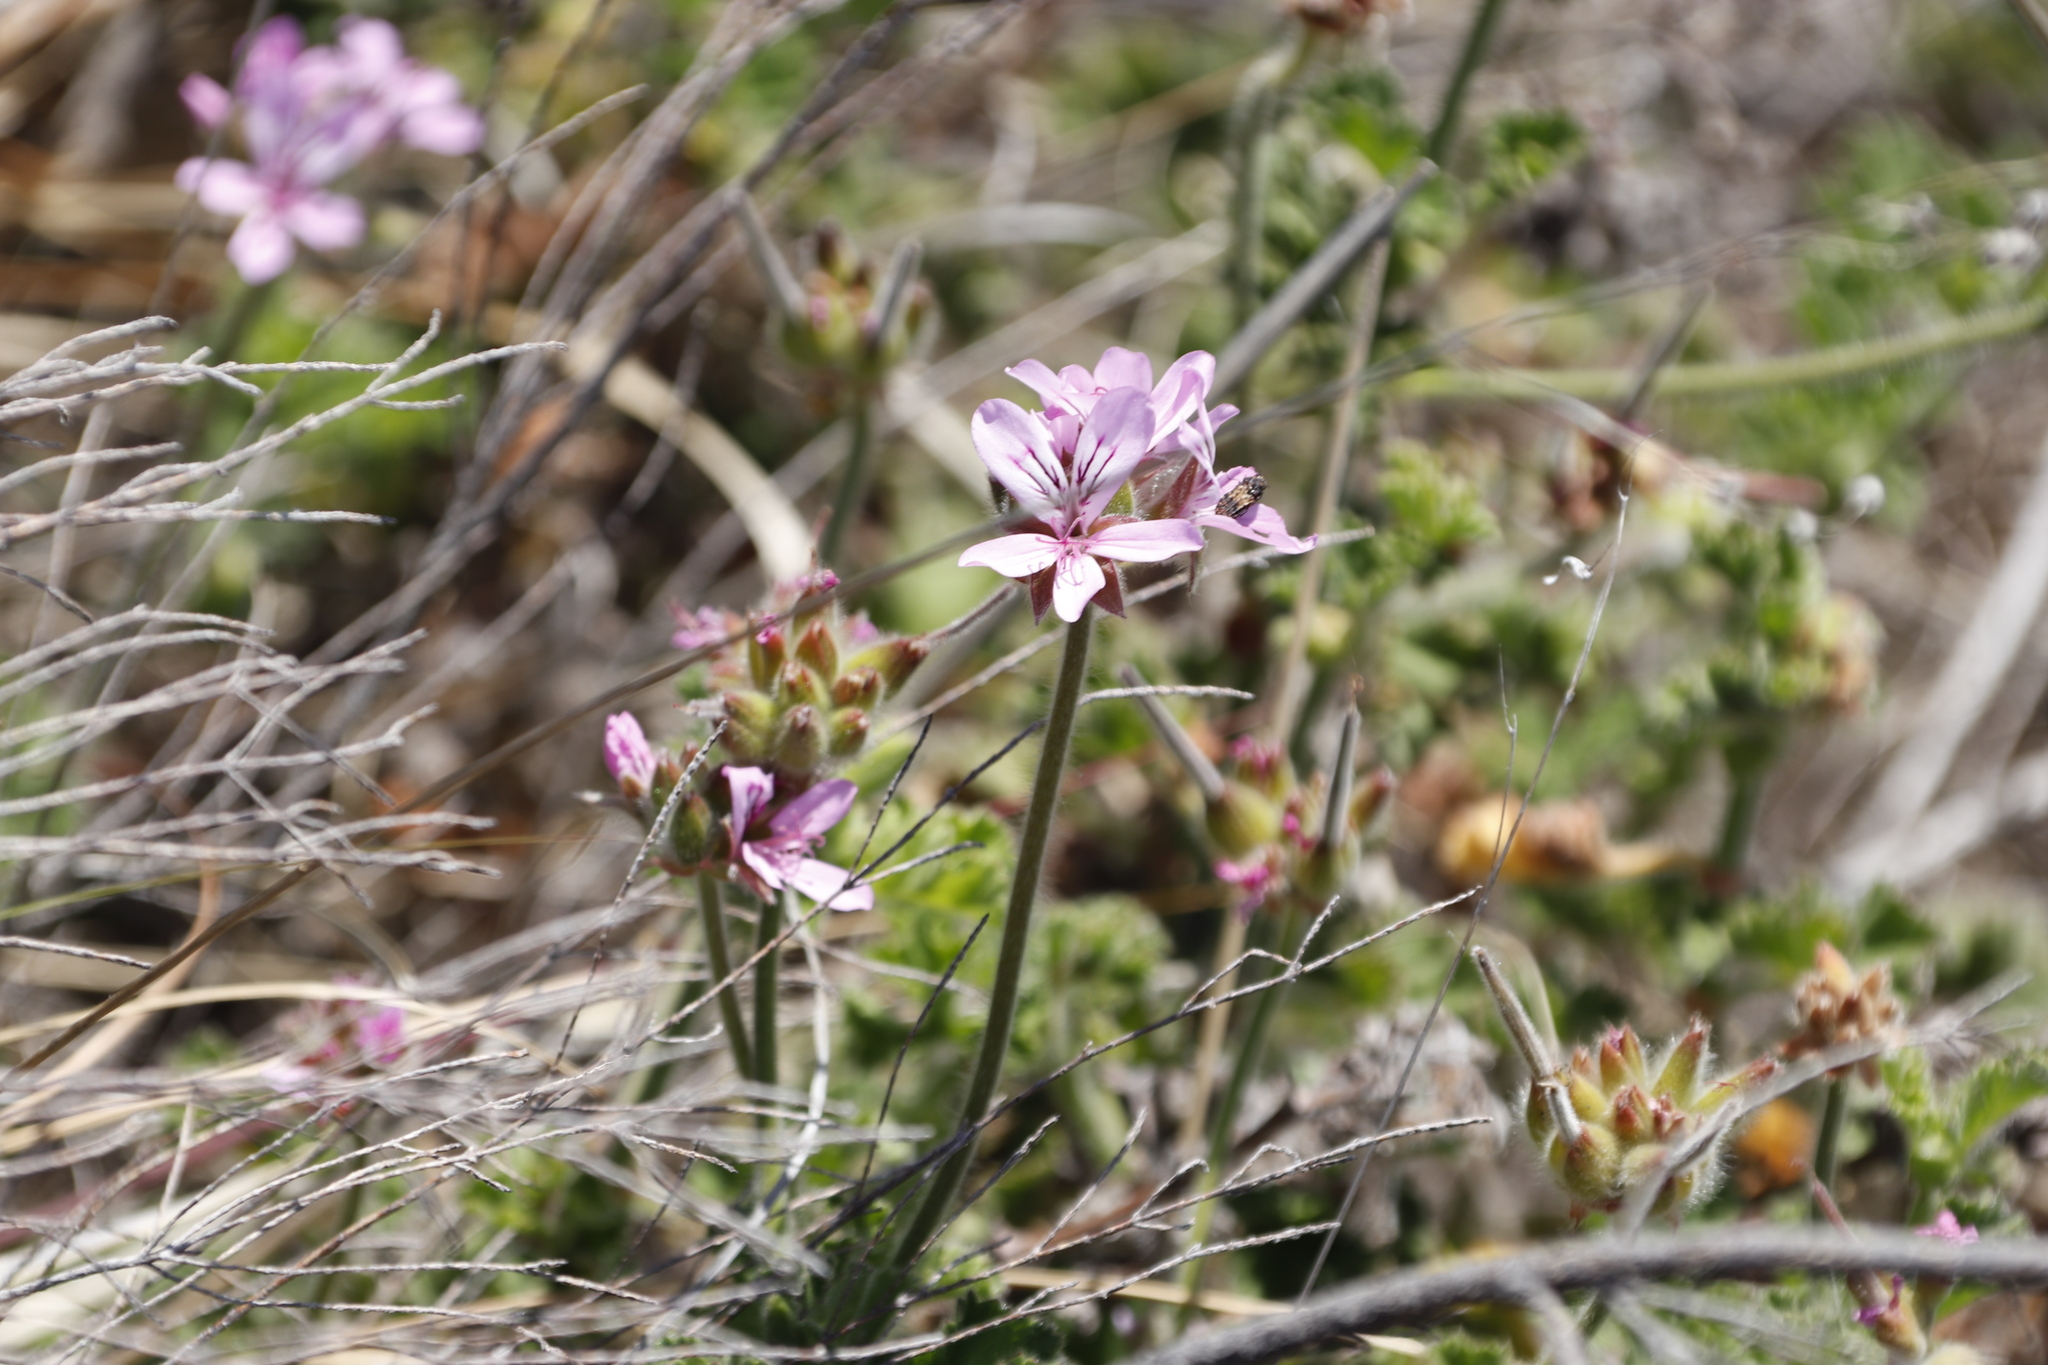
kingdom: Plantae
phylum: Tracheophyta
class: Magnoliopsida
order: Geraniales
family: Geraniaceae
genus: Pelargonium
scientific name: Pelargonium capitatum
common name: Rose scented geranium
